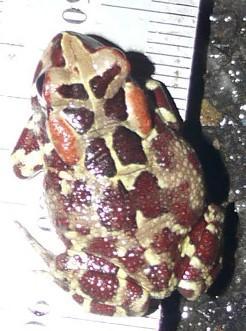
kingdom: Animalia
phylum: Chordata
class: Amphibia
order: Anura
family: Bufonidae
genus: Sclerophrys
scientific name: Sclerophrys pantherina
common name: Panther toad
